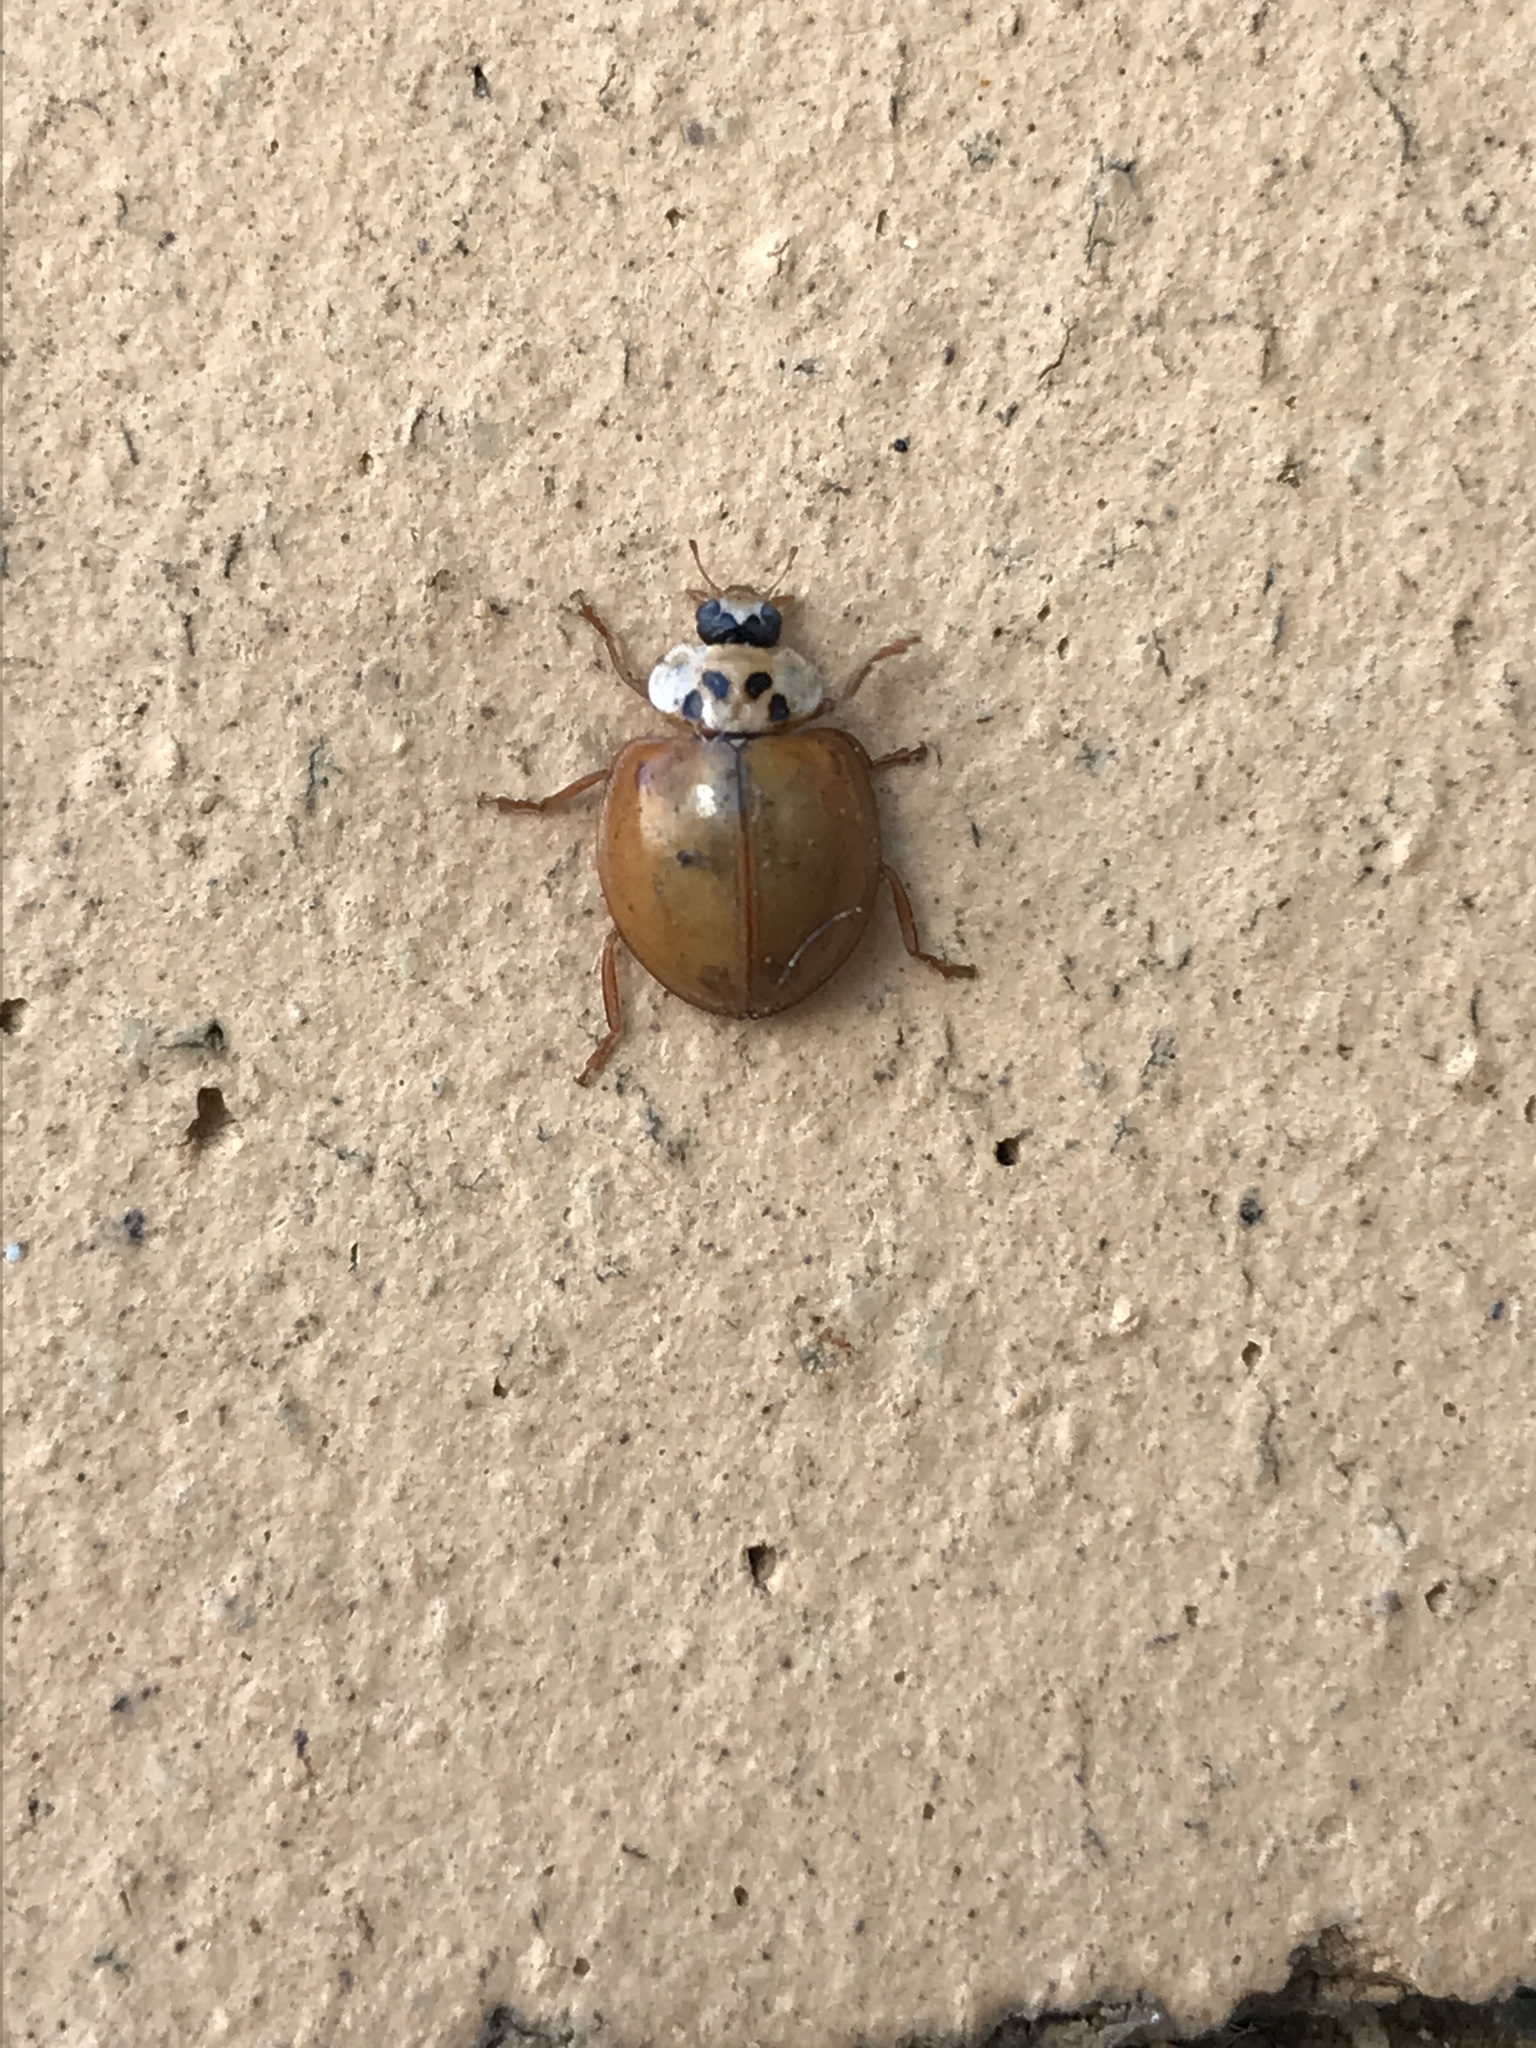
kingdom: Animalia
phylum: Arthropoda
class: Insecta
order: Coleoptera
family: Coccinellidae
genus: Harmonia
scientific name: Harmonia axyridis
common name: Harlequin ladybird
